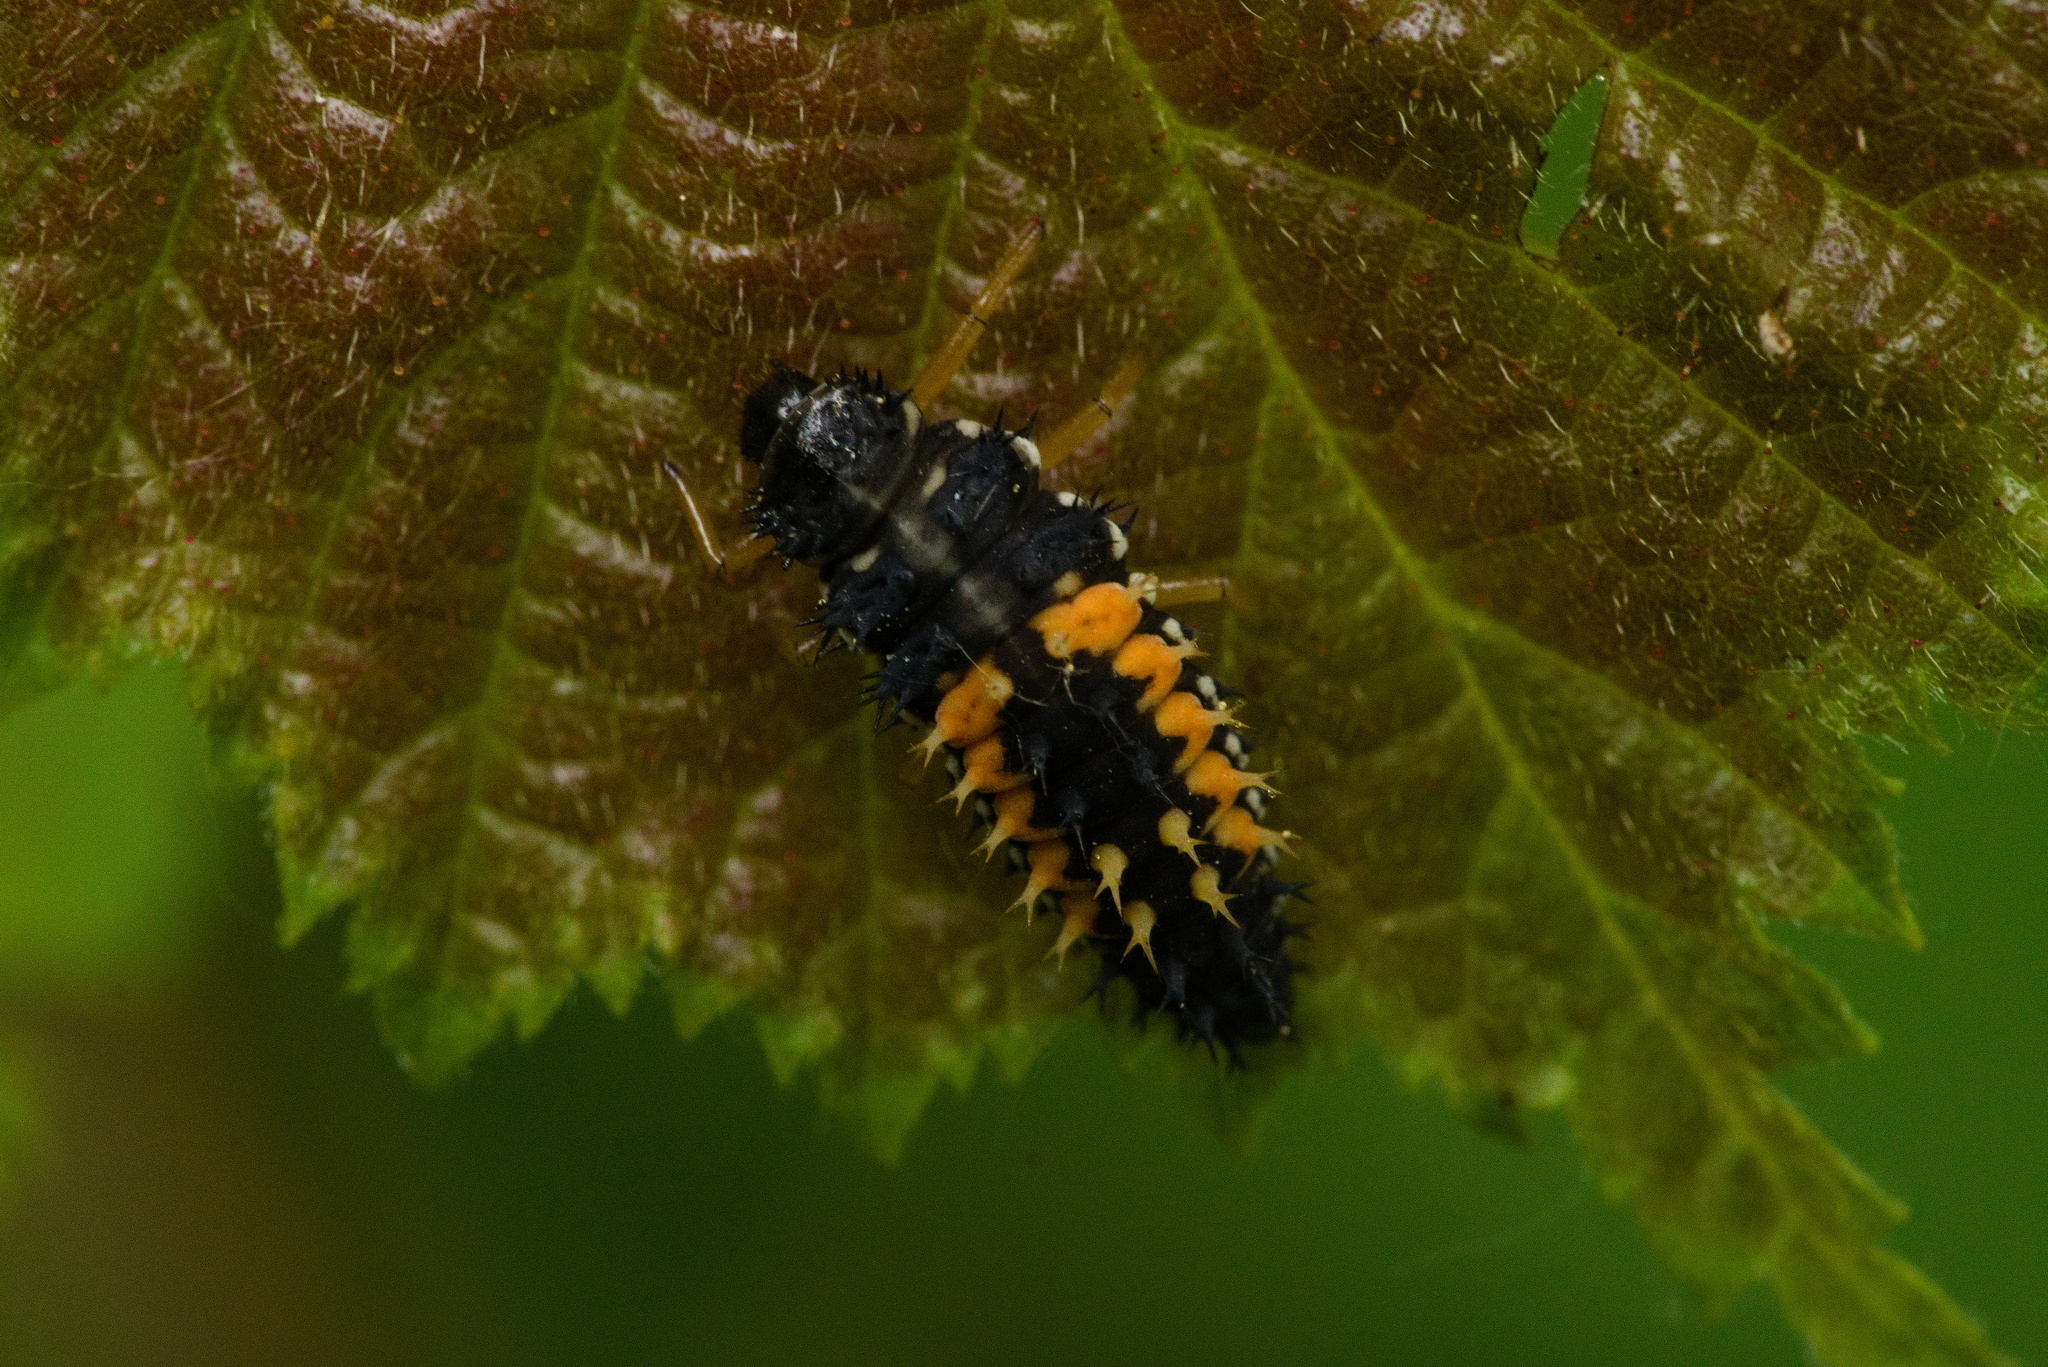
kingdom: Animalia
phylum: Arthropoda
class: Insecta
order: Coleoptera
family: Coccinellidae
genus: Harmonia
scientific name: Harmonia axyridis
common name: Harlequin ladybird
